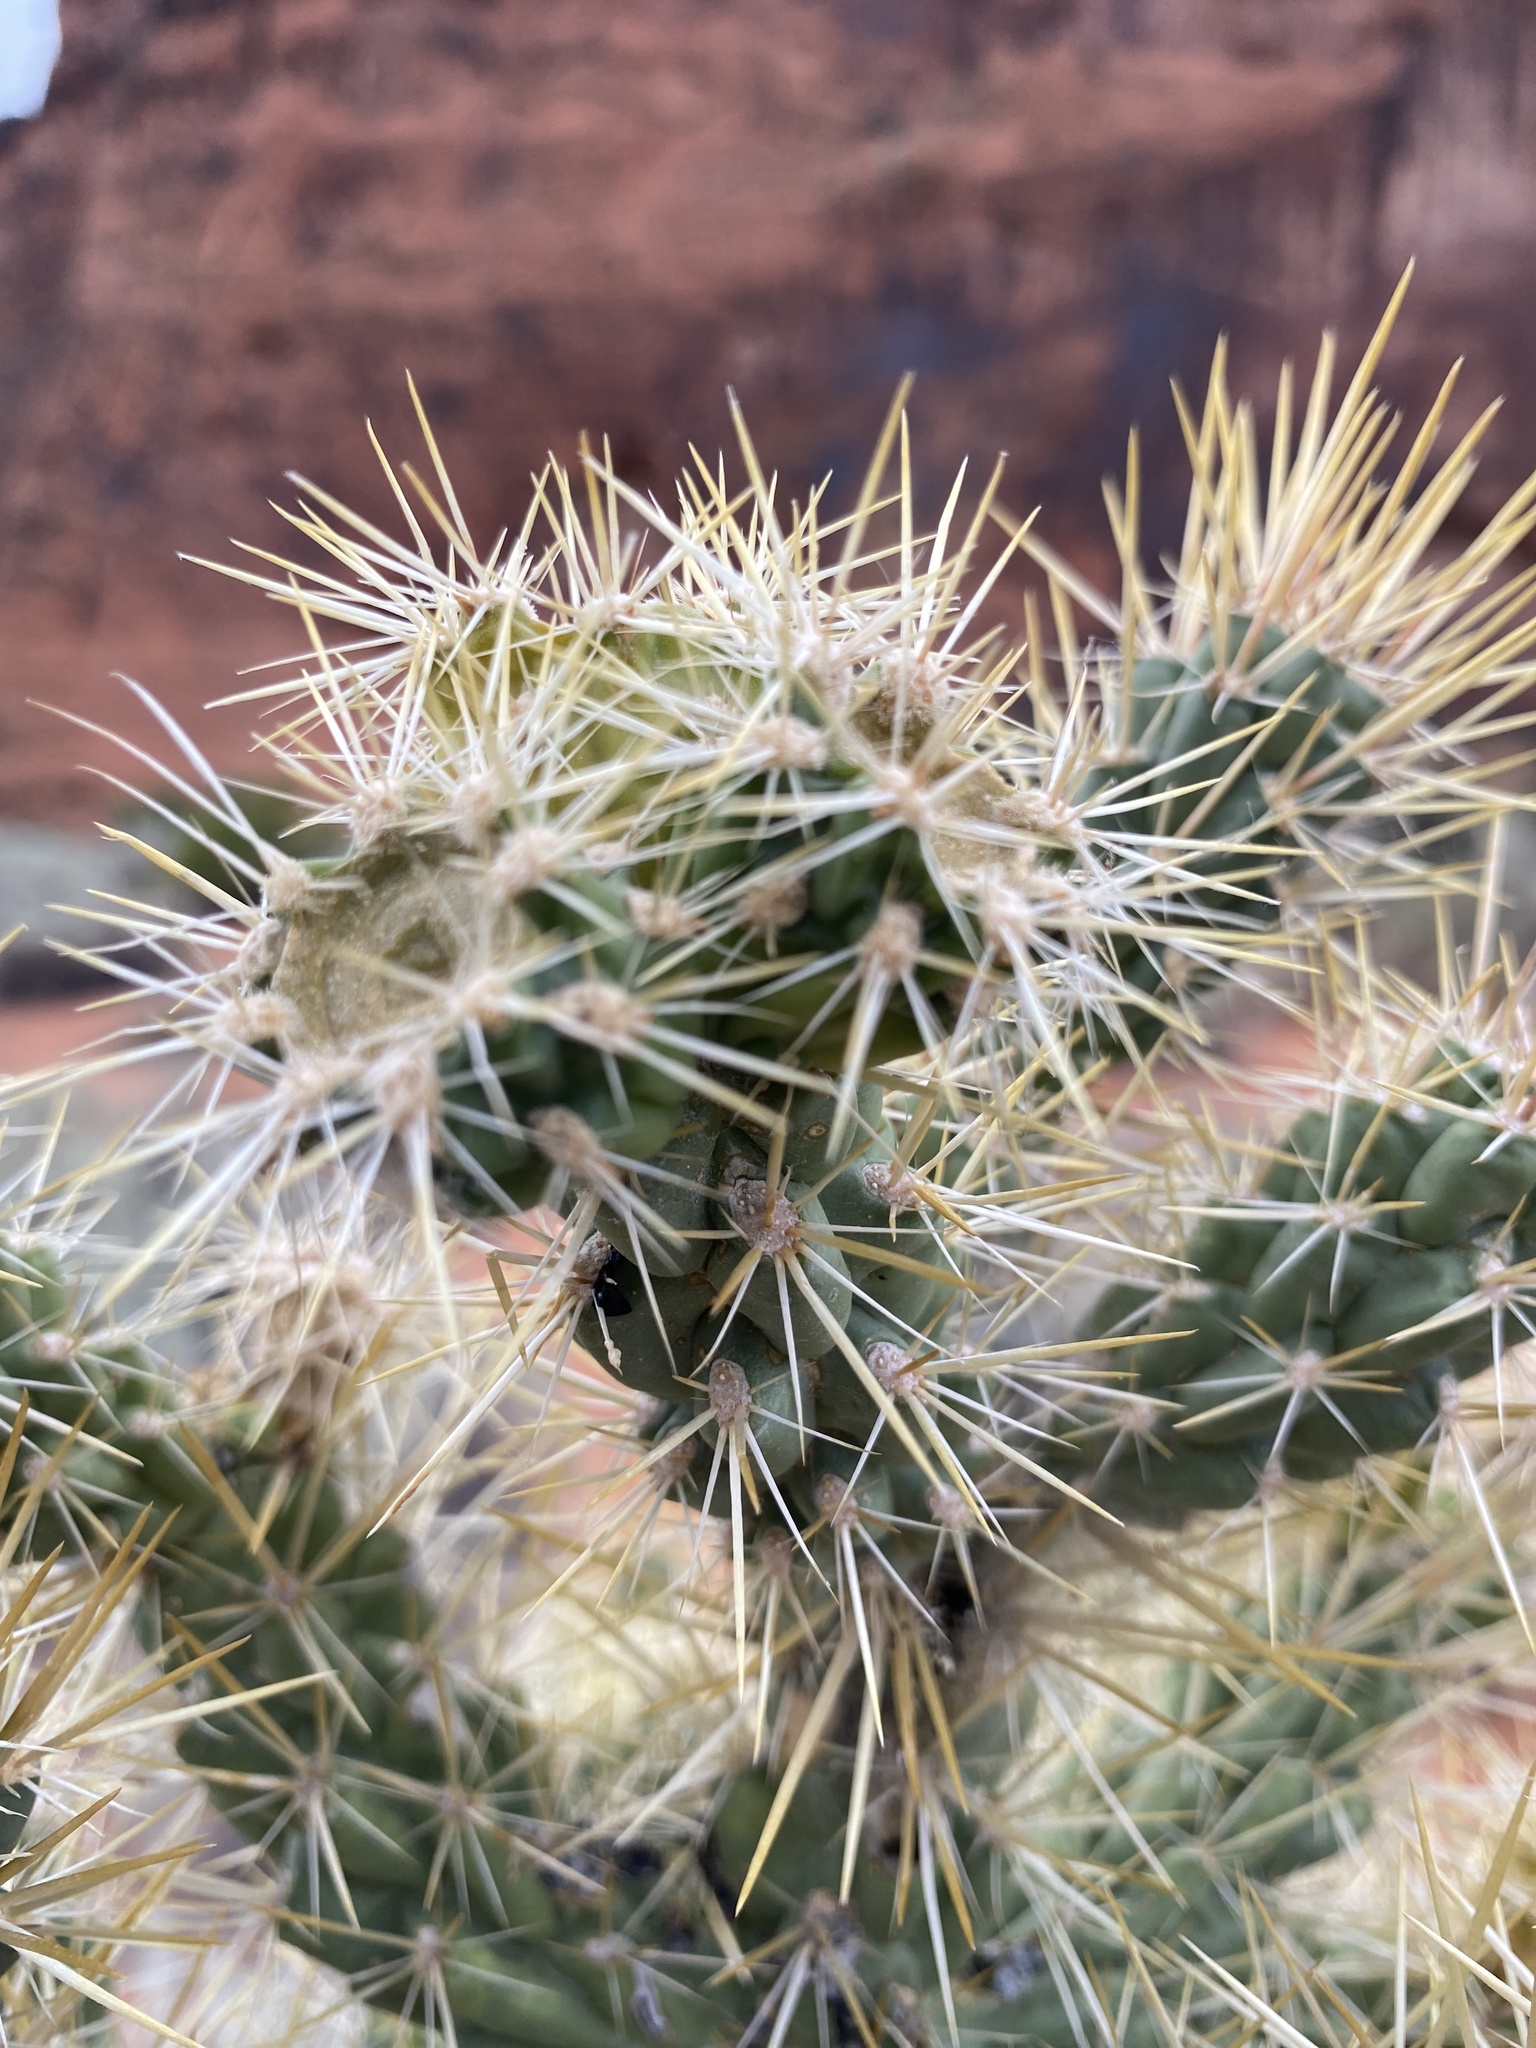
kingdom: Plantae
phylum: Tracheophyta
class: Magnoliopsida
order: Caryophyllales
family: Cactaceae
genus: Cylindropuntia
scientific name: Cylindropuntia echinocarpa
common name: Ground cholla
